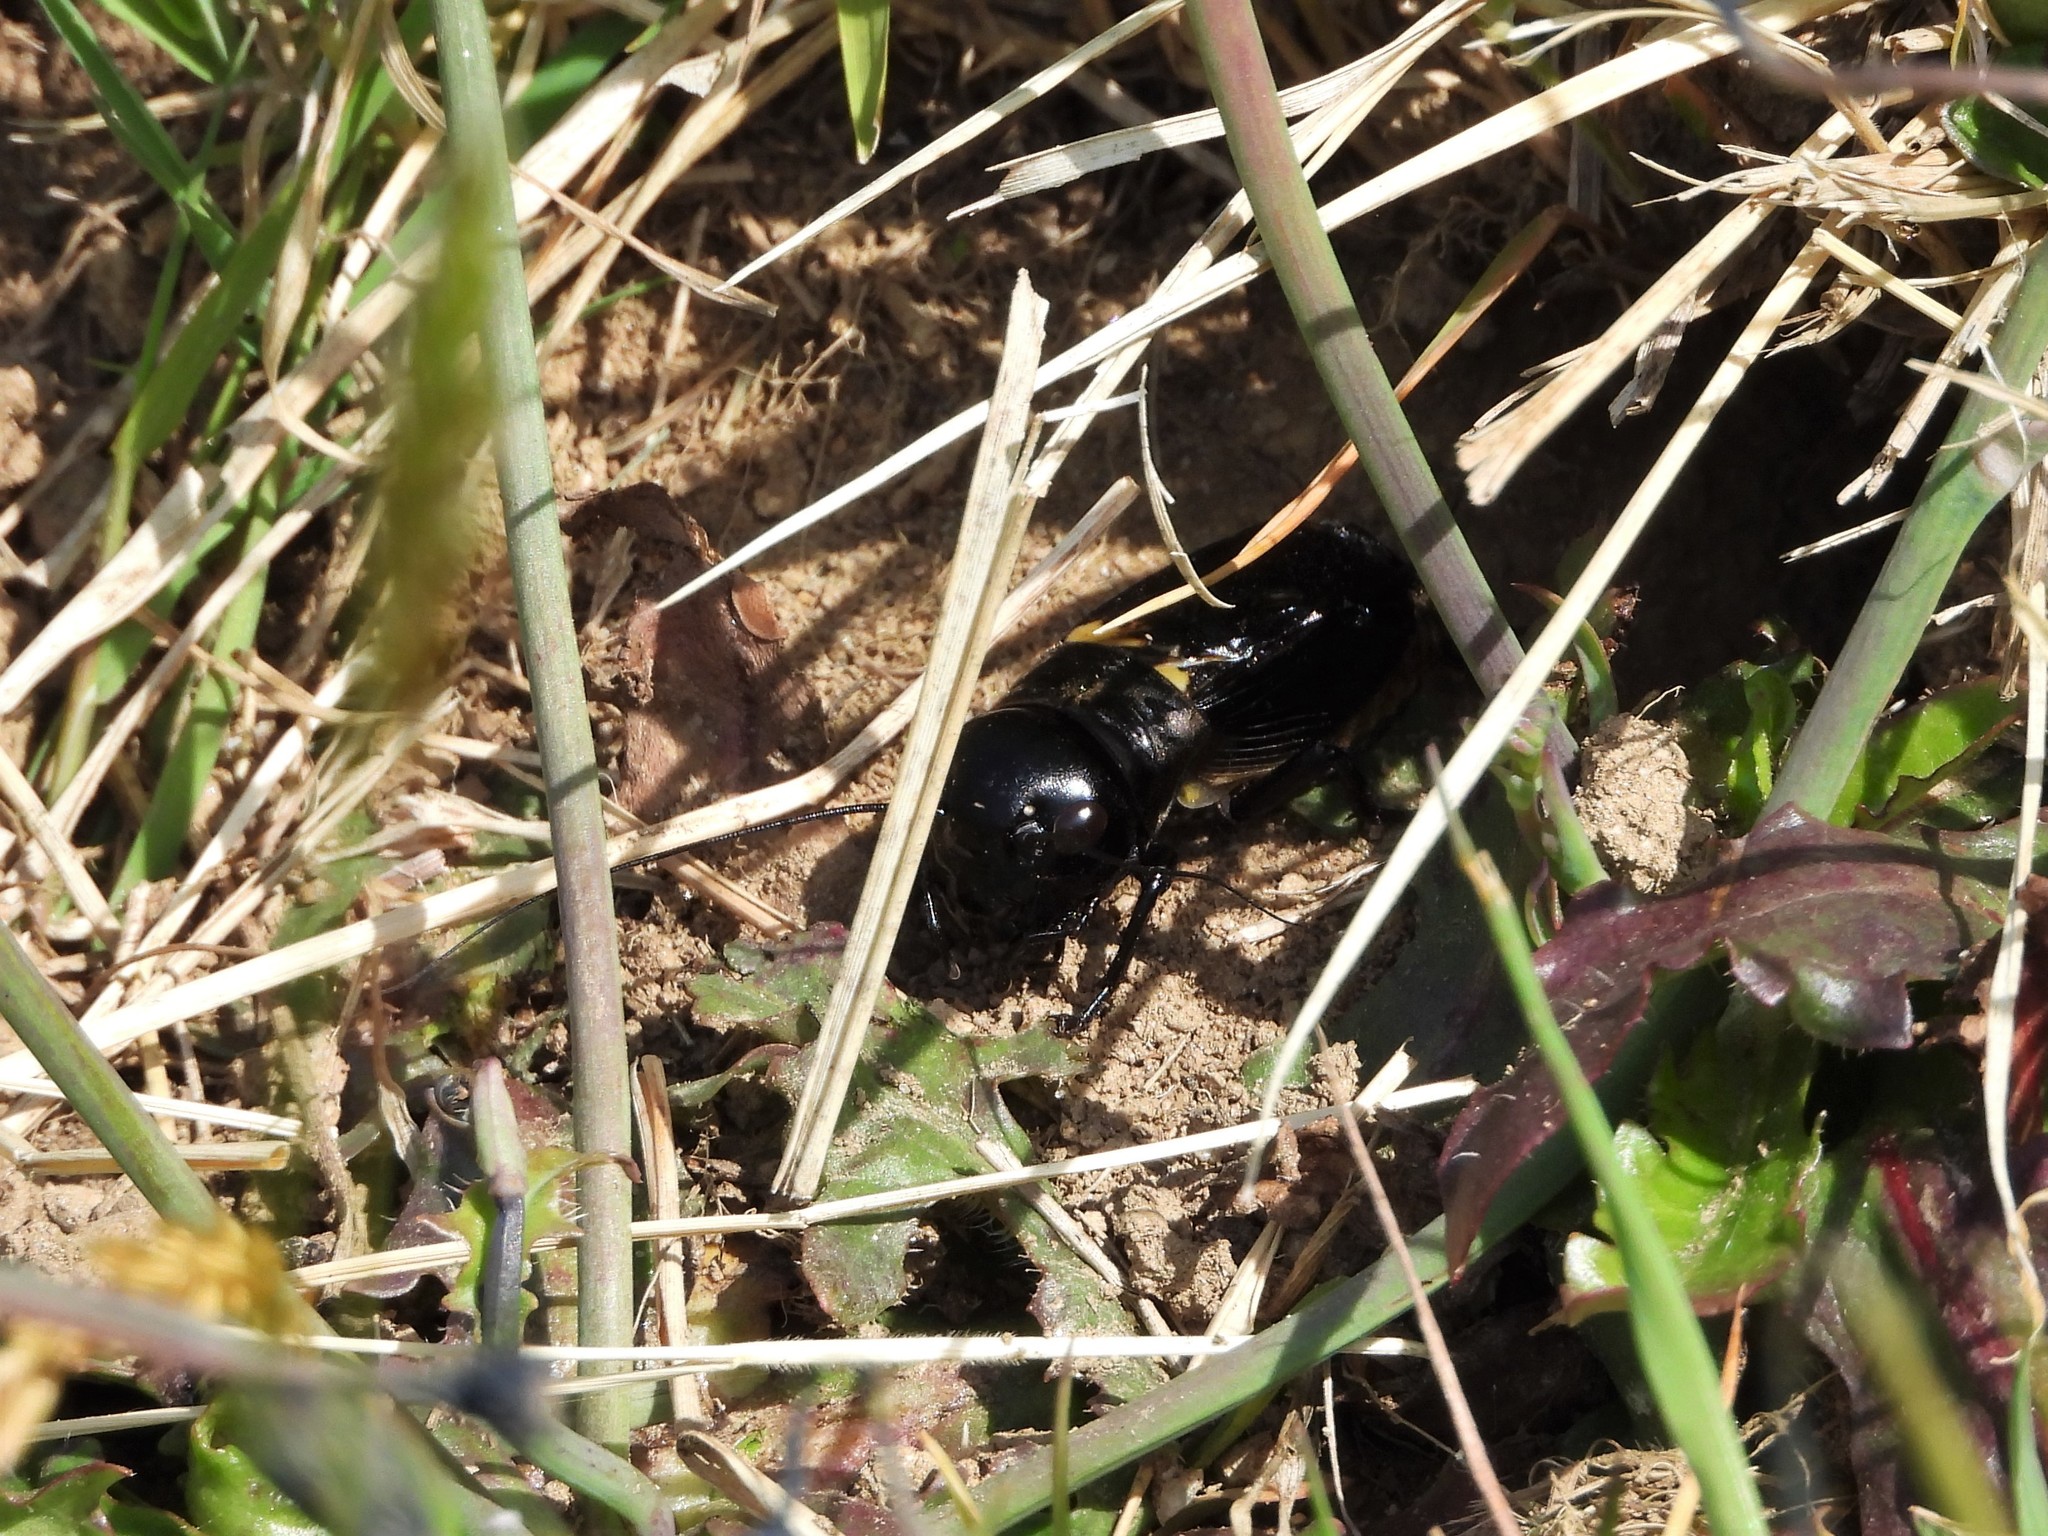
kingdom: Animalia
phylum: Arthropoda
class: Insecta
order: Orthoptera
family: Gryllidae
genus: Gryllus
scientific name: Gryllus campestris
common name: Field cricket
